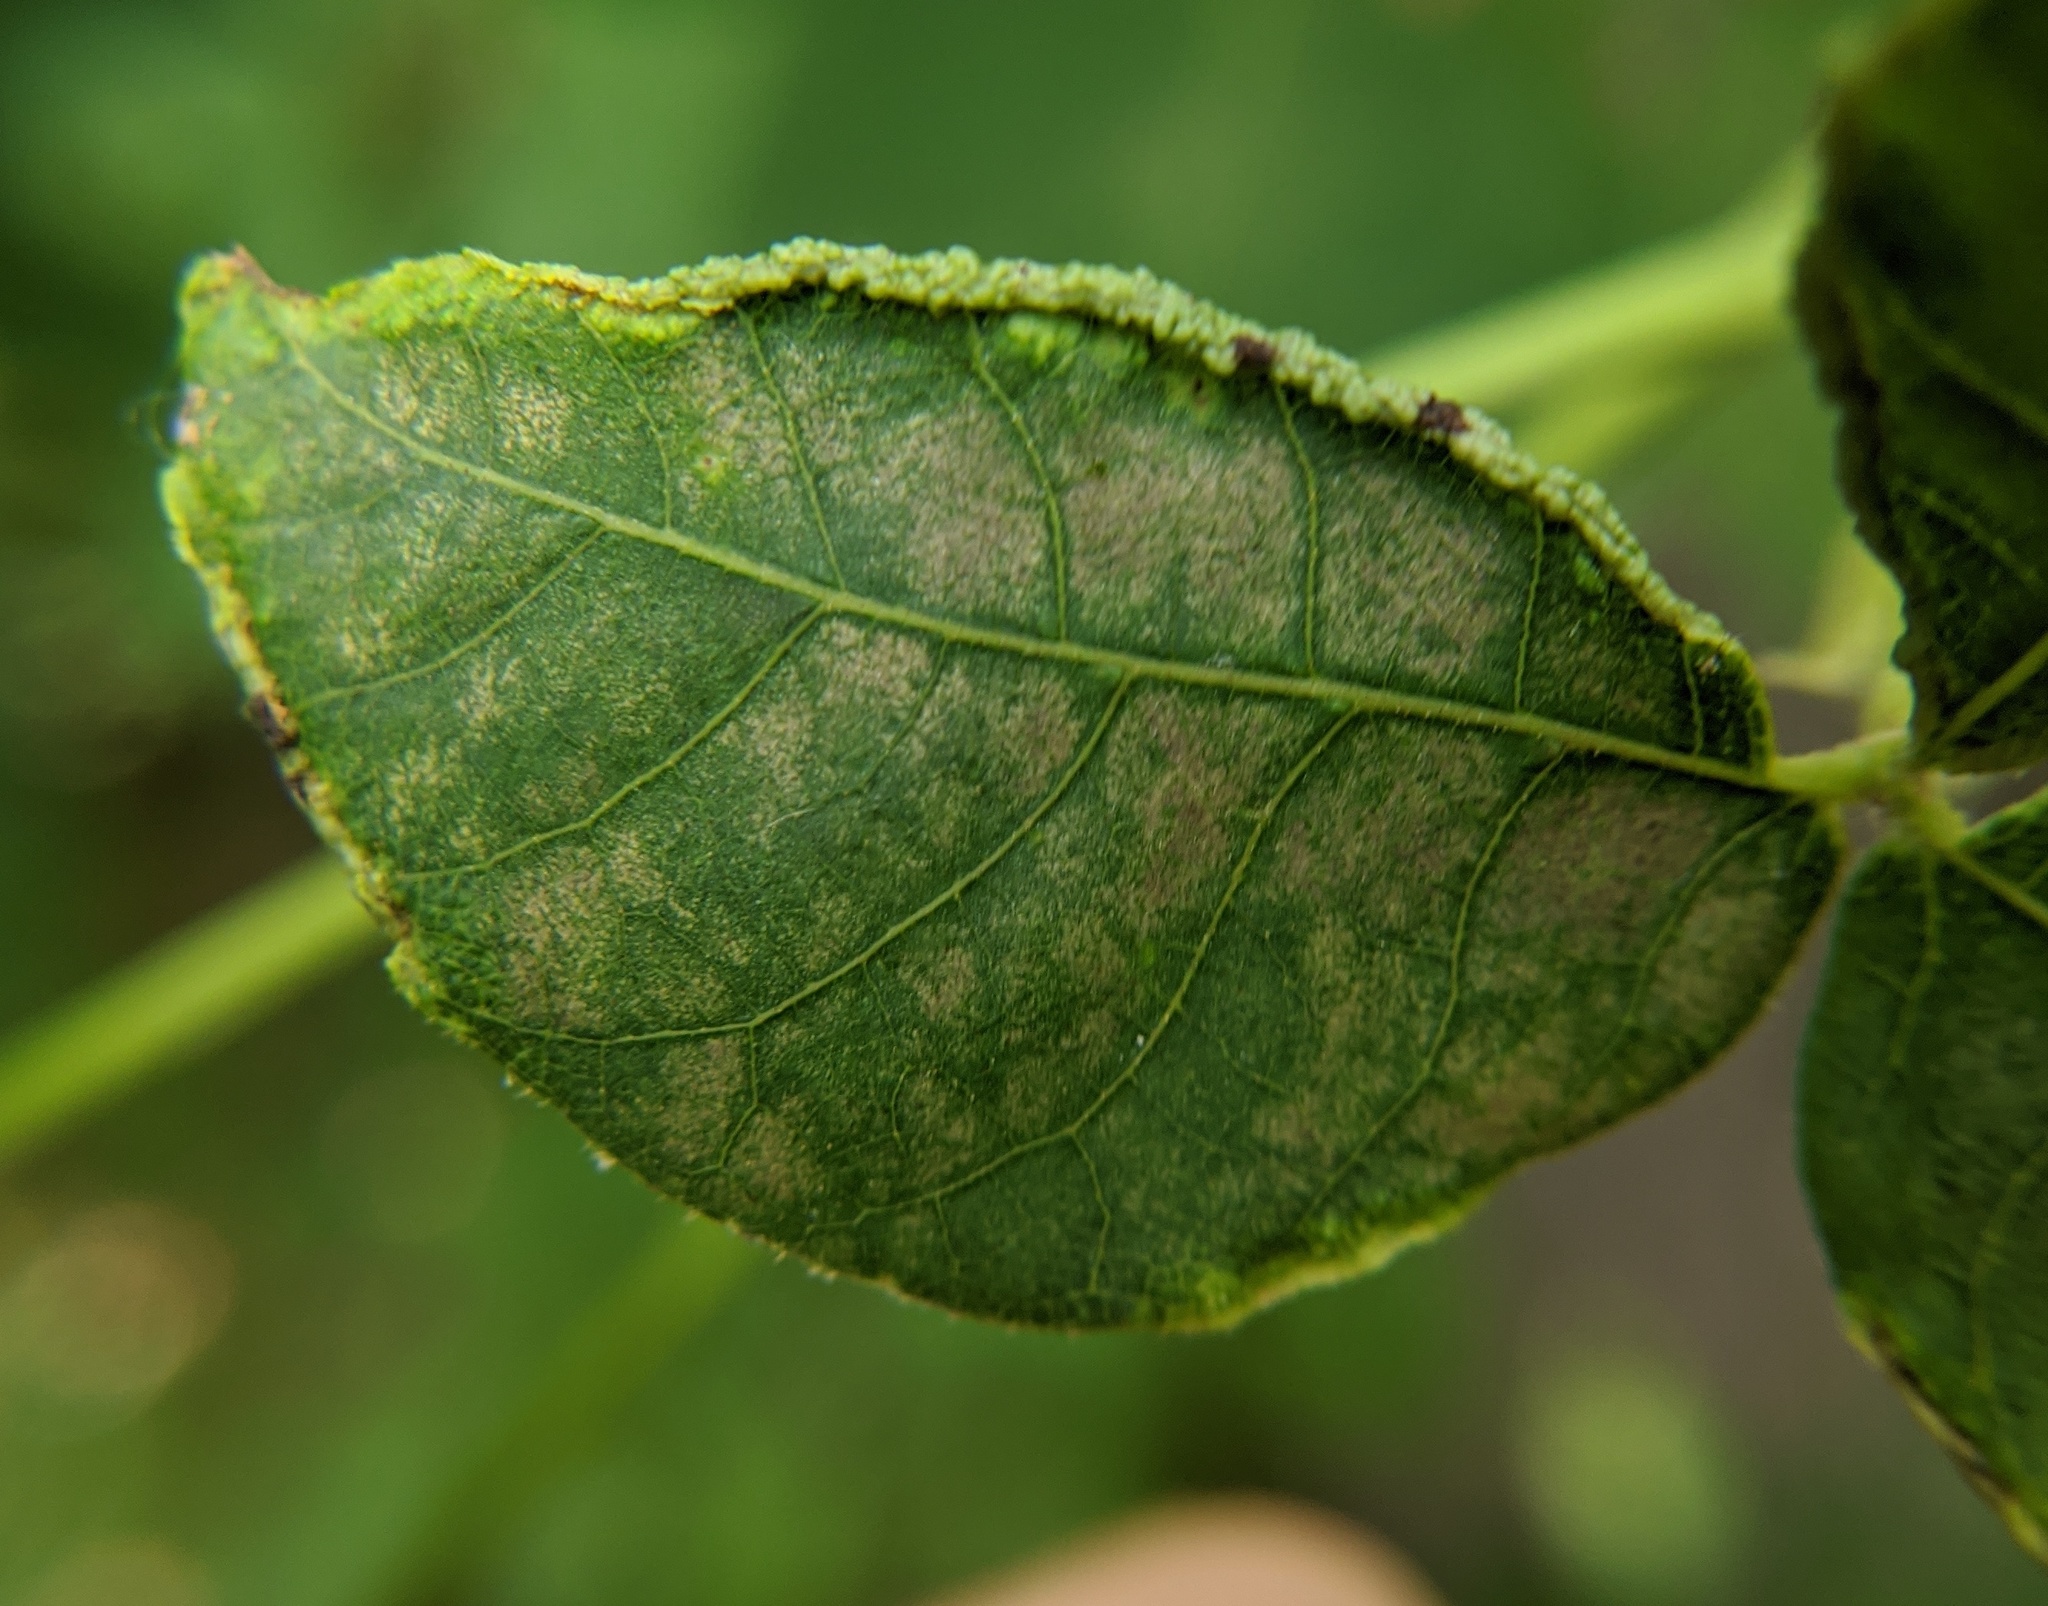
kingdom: Animalia
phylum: Arthropoda
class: Arachnida
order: Trombidiformes
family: Eriophyidae
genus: Aceria
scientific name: Aceria carlinae
